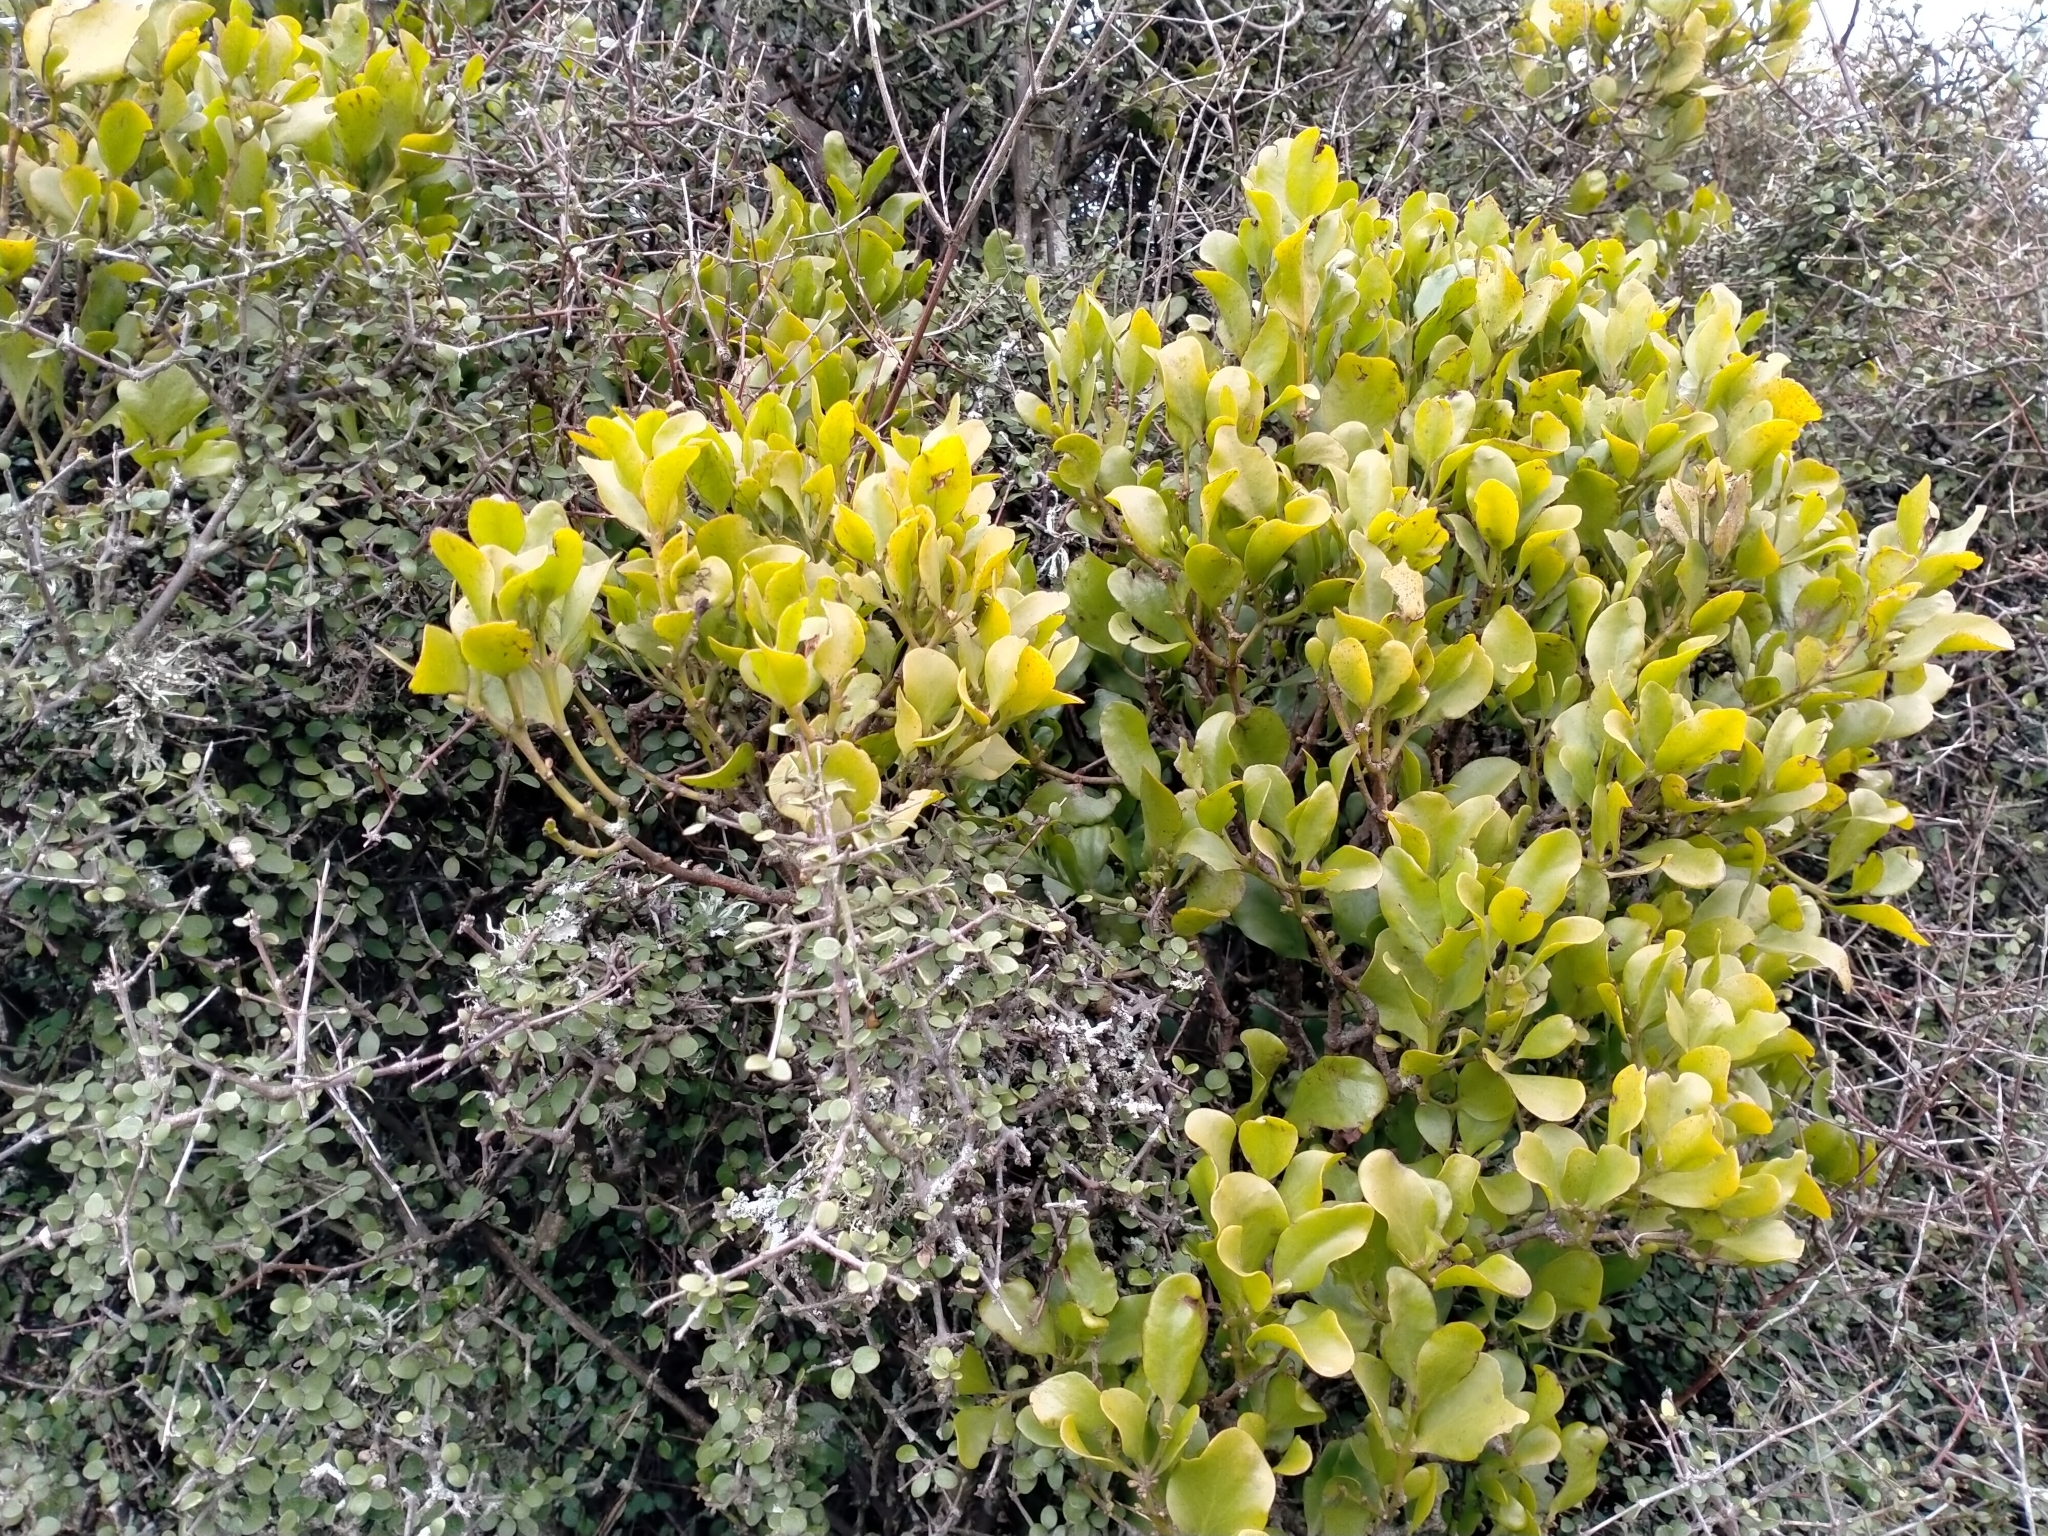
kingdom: Plantae
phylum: Tracheophyta
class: Magnoliopsida
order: Santalales
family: Loranthaceae
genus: Ileostylus
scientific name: Ileostylus micranthus
